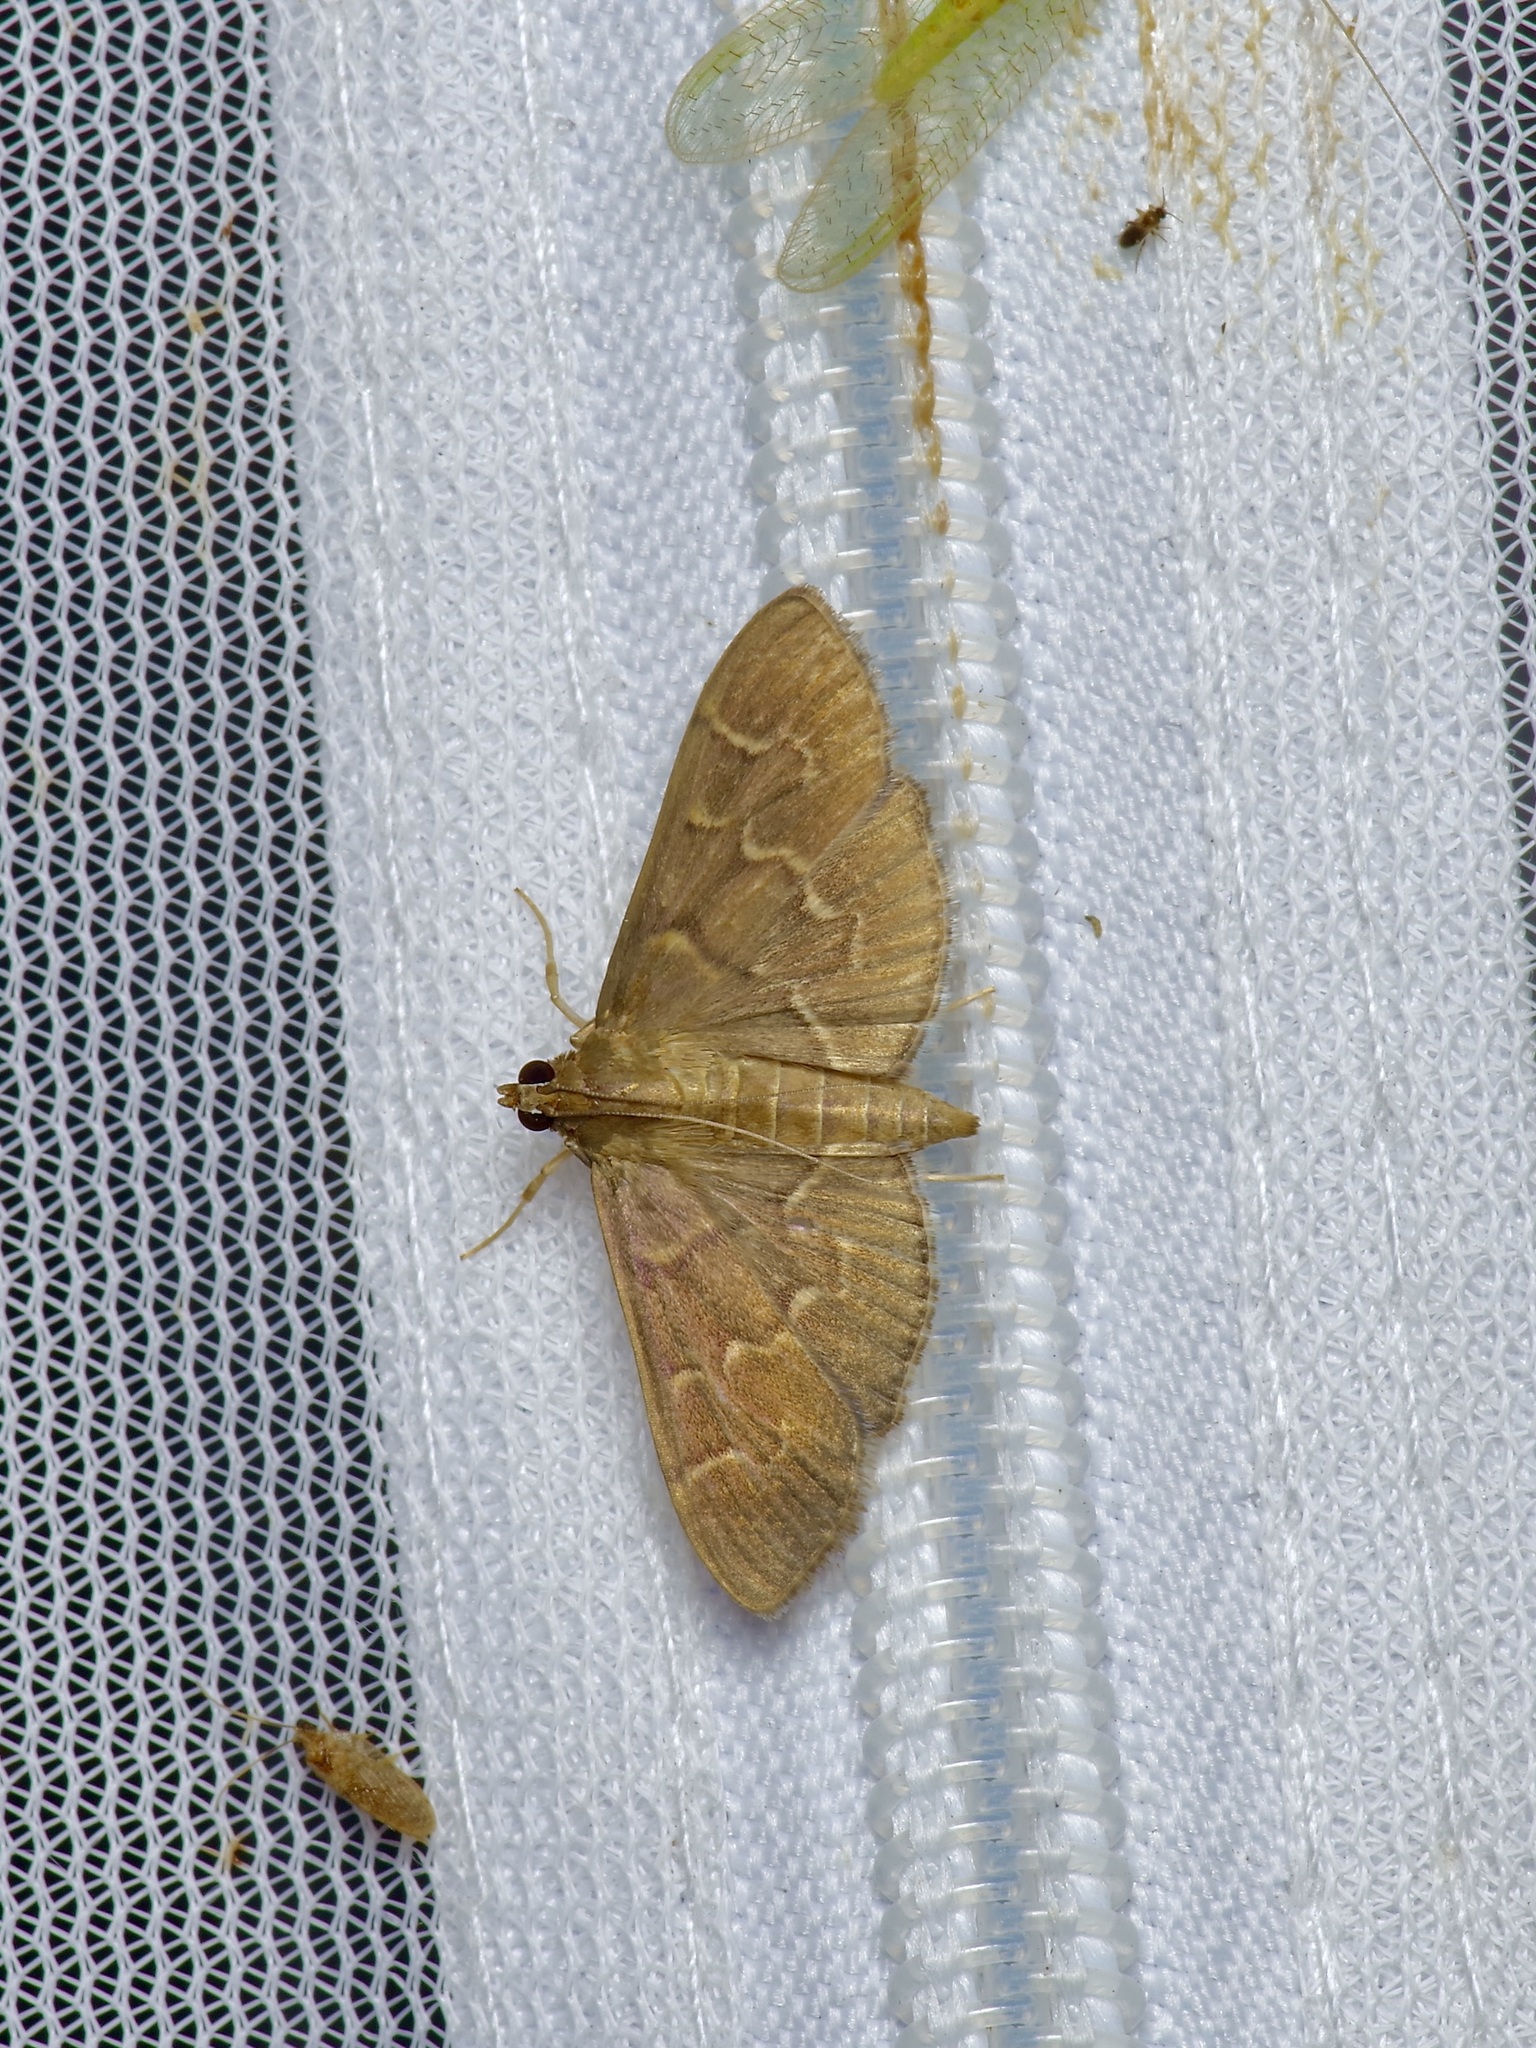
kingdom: Animalia
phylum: Arthropoda
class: Insecta
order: Lepidoptera
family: Crambidae
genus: Pilocrocis
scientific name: Pilocrocis ramentalis
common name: Scraped pilocrocis
